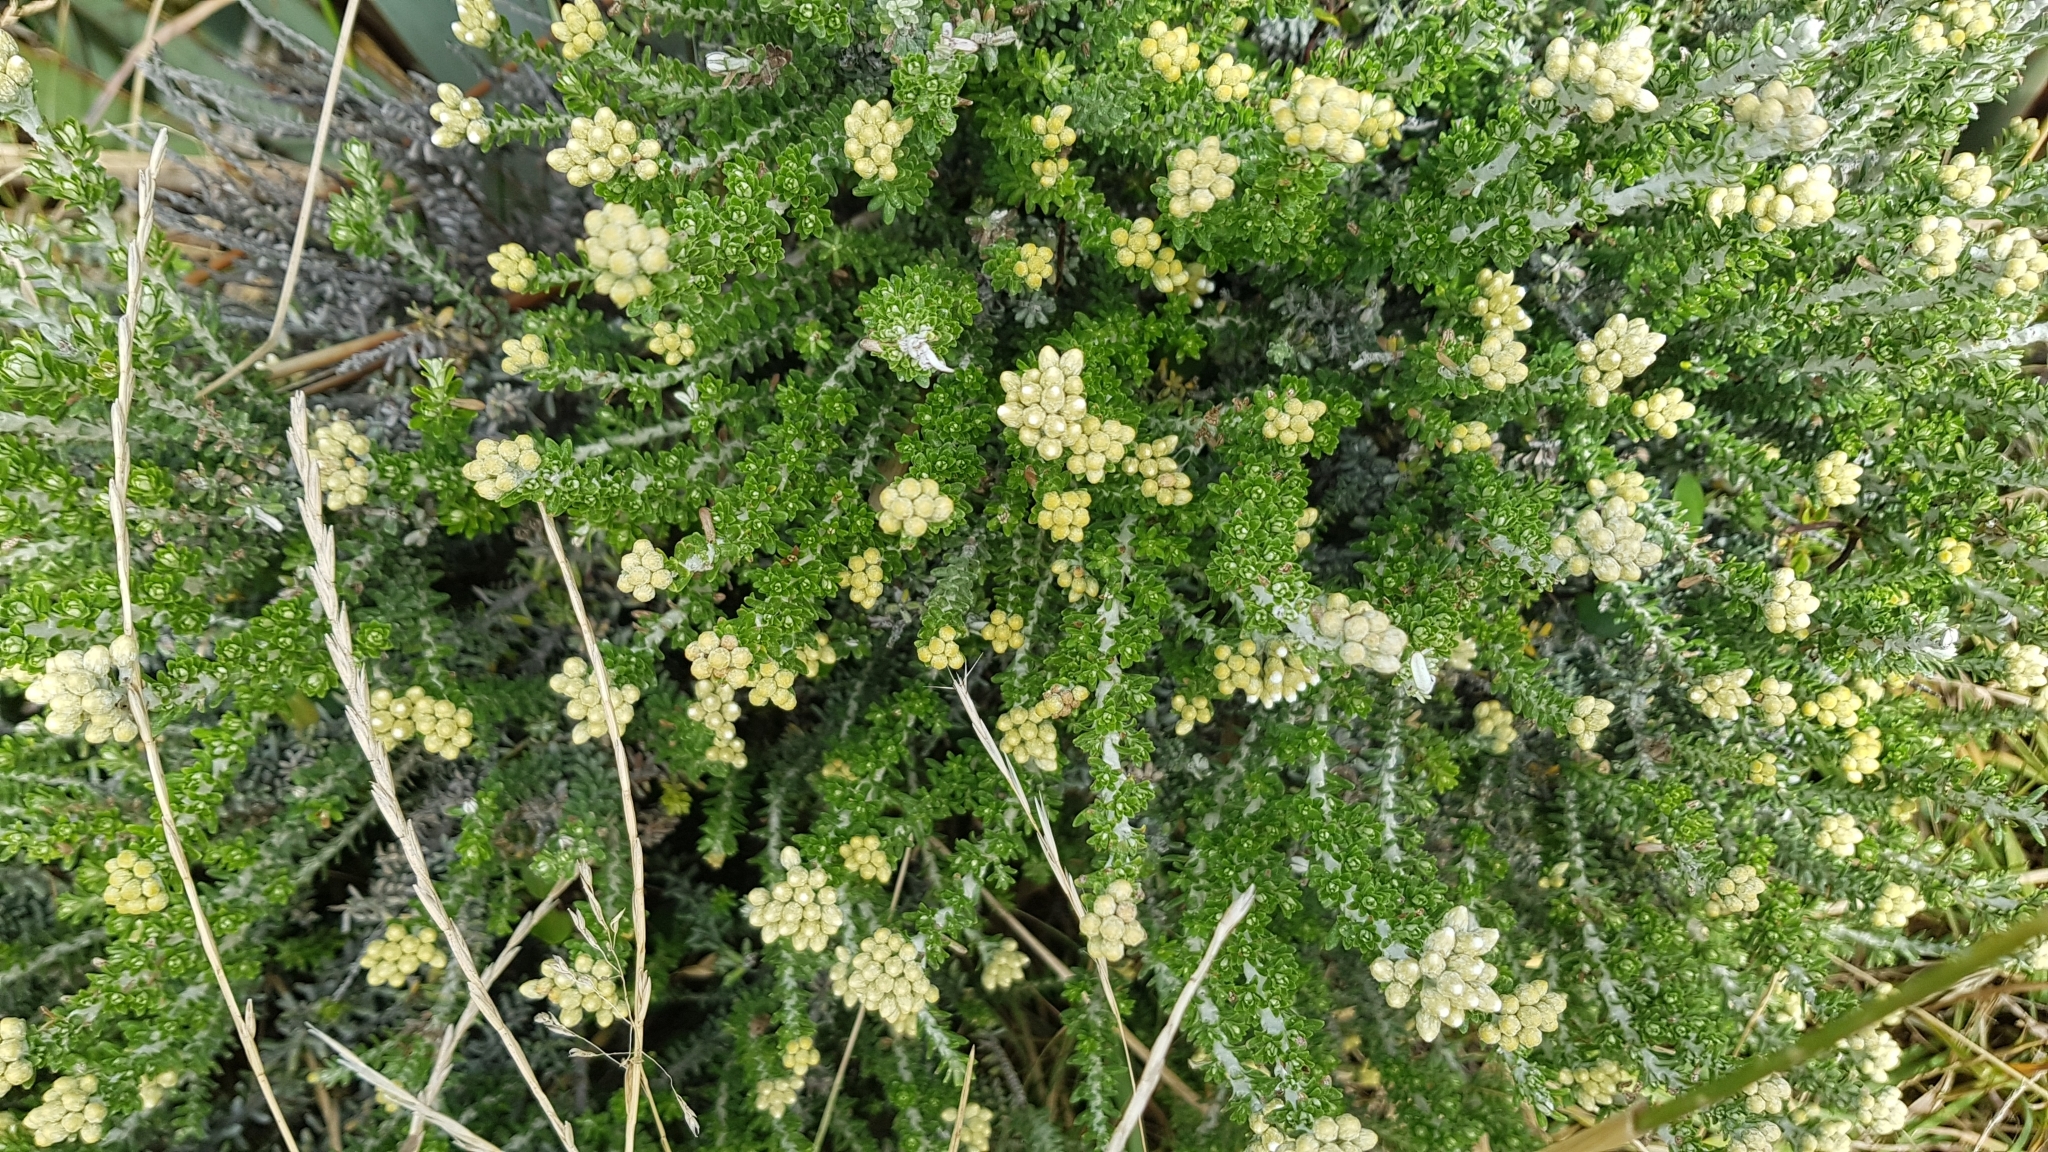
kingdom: Plantae
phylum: Tracheophyta
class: Magnoliopsida
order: Asterales
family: Asteraceae
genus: Ozothamnus
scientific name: Ozothamnus leptophyllus
